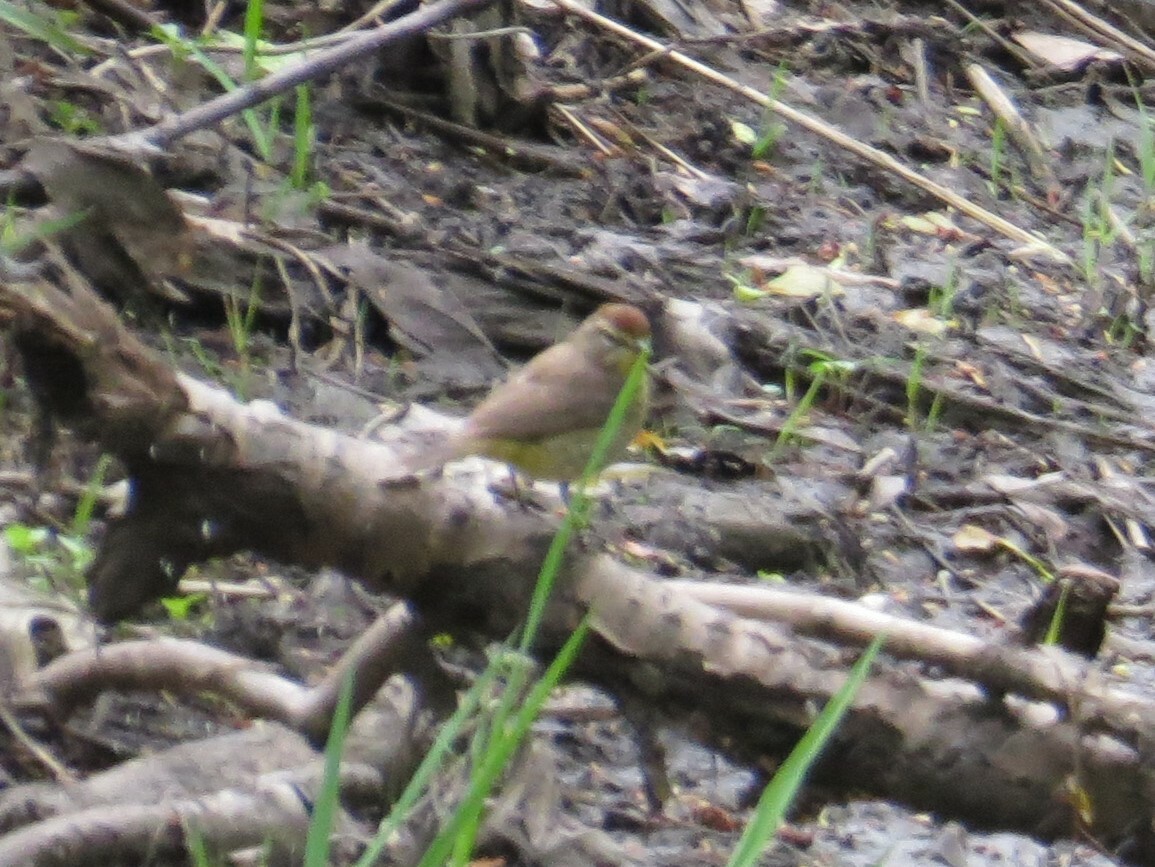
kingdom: Animalia
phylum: Chordata
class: Aves
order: Passeriformes
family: Parulidae
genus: Setophaga
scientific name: Setophaga palmarum
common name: Palm warbler
